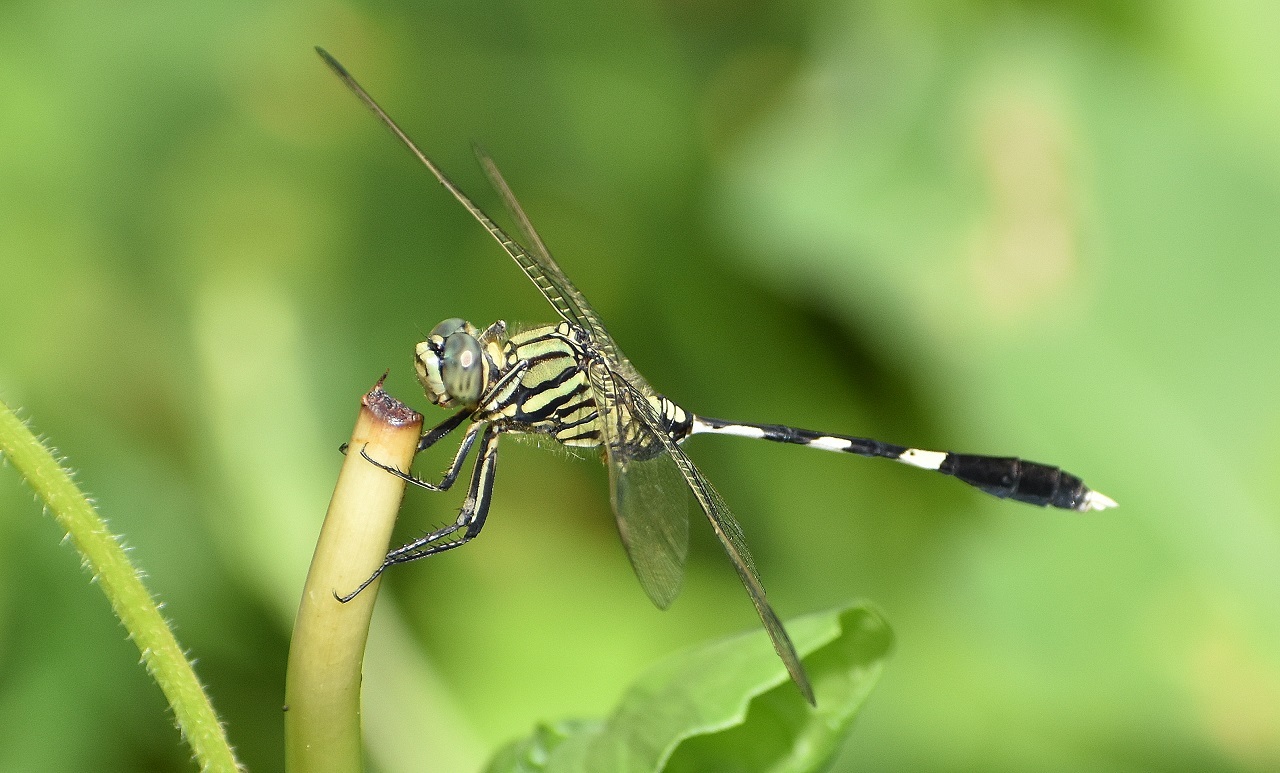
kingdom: Animalia
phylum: Arthropoda
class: Insecta
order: Odonata
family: Libellulidae
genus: Orthetrum
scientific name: Orthetrum sabina
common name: Slender skimmer
